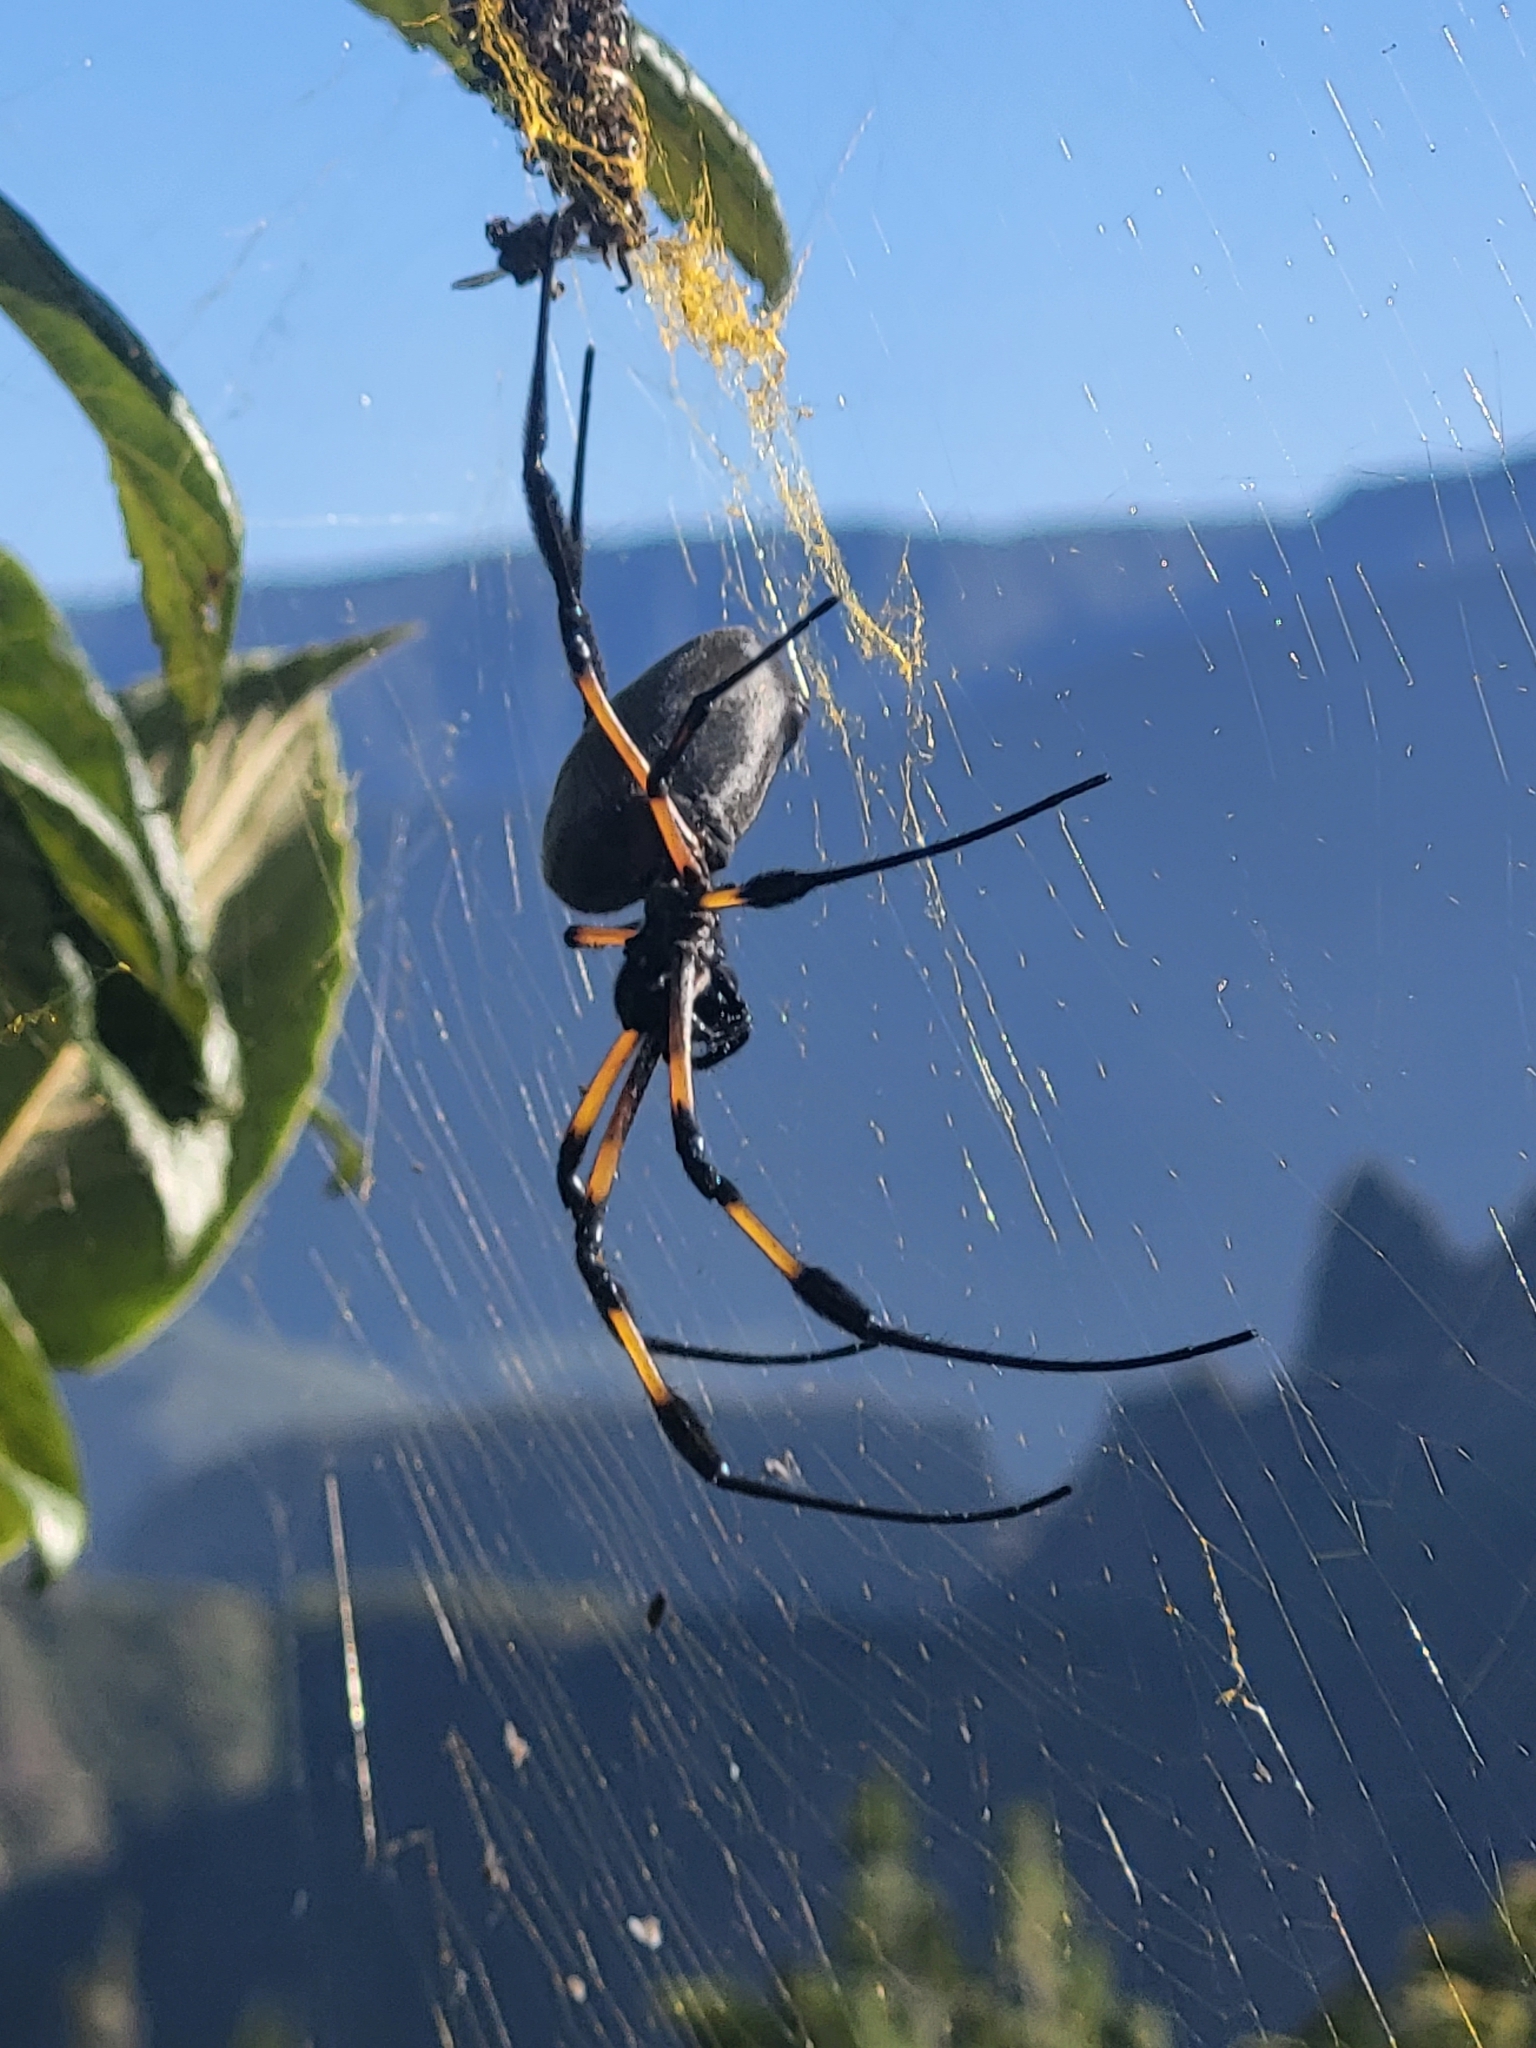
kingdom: Animalia
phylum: Arthropoda
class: Arachnida
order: Araneae
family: Araneidae
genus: Trichonephila
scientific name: Trichonephila inaurata
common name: Red-legged golden orb weaver
